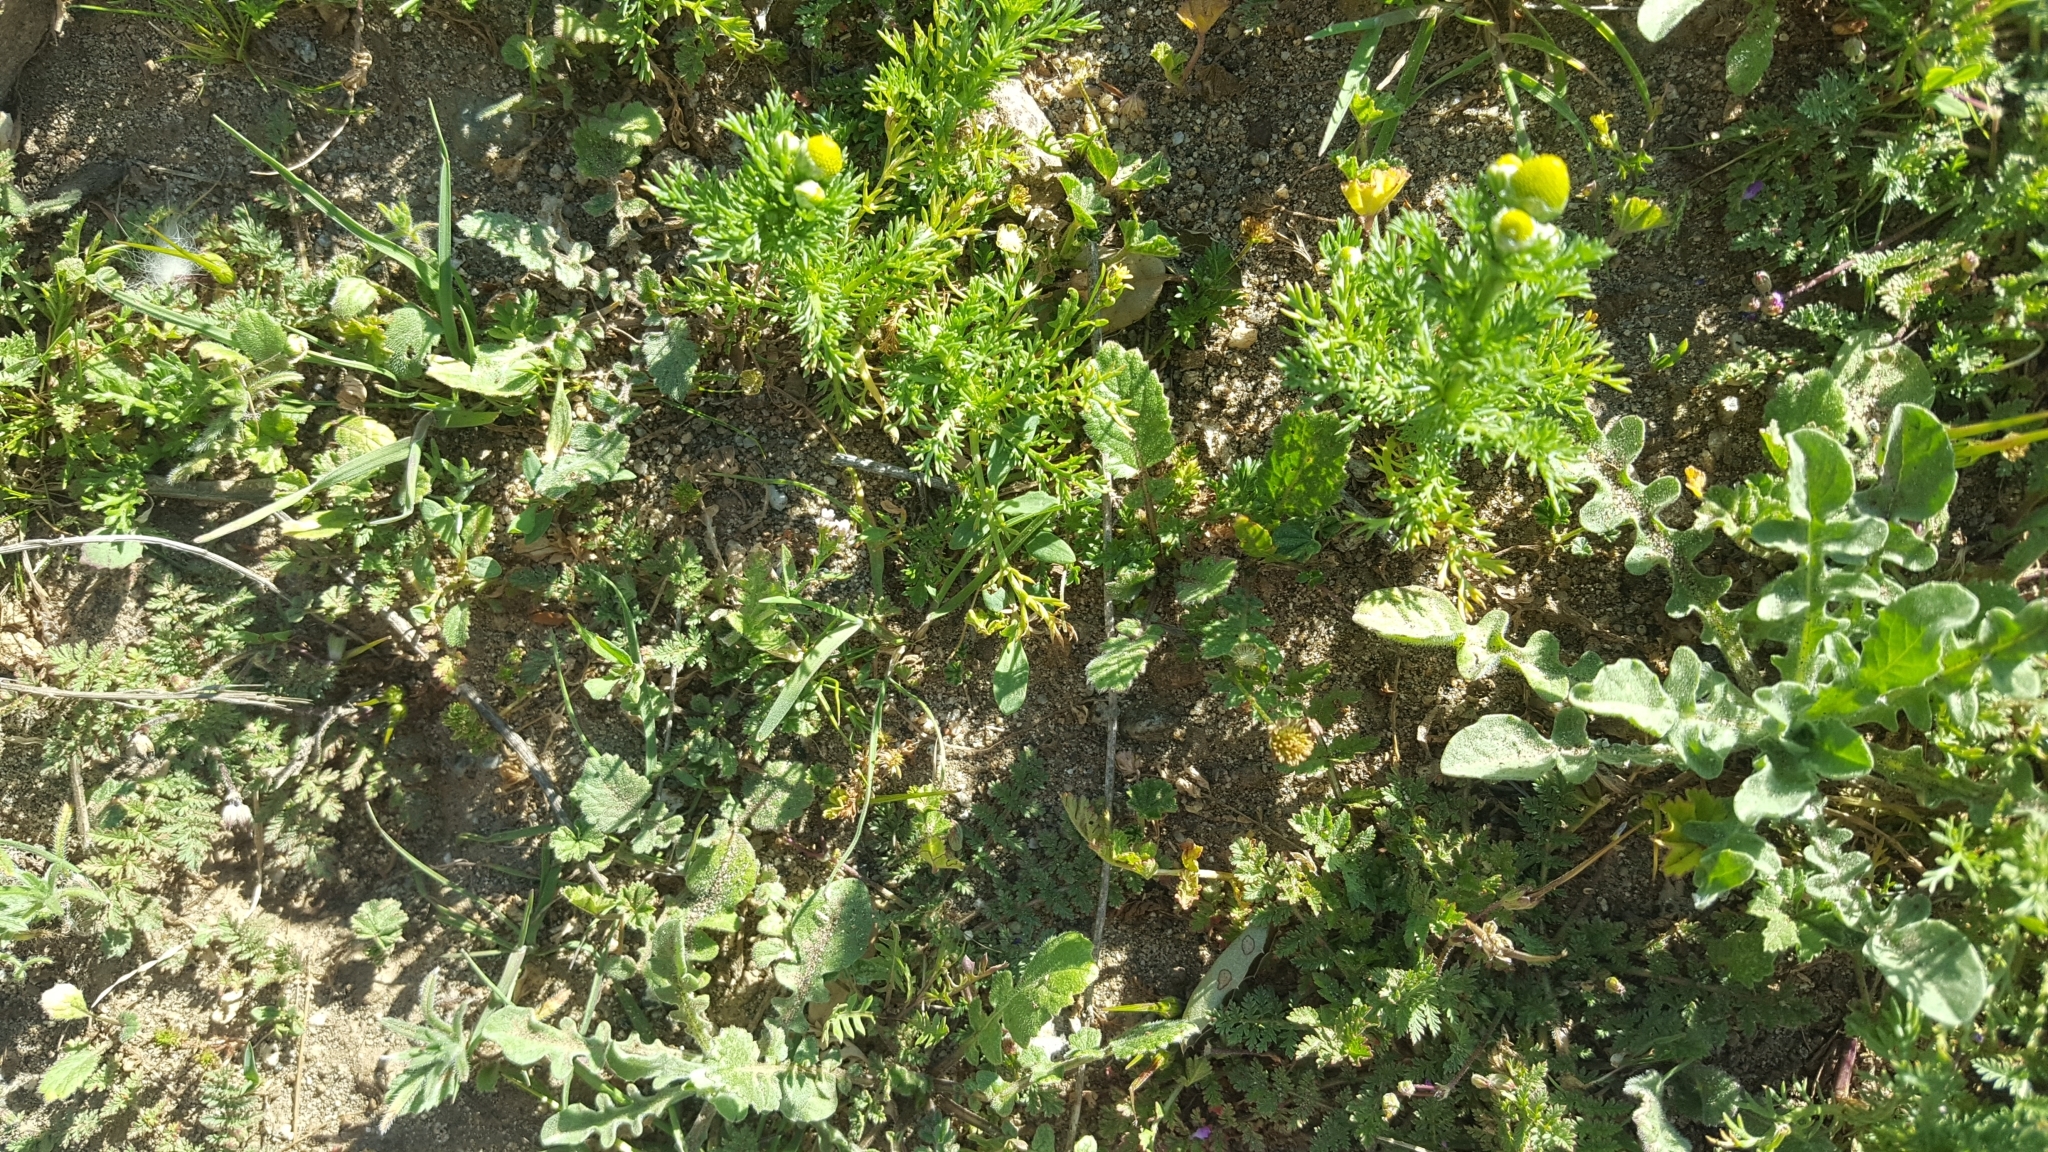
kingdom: Plantae
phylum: Tracheophyta
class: Magnoliopsida
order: Asterales
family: Asteraceae
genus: Matricaria
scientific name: Matricaria discoidea
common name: Disc mayweed
